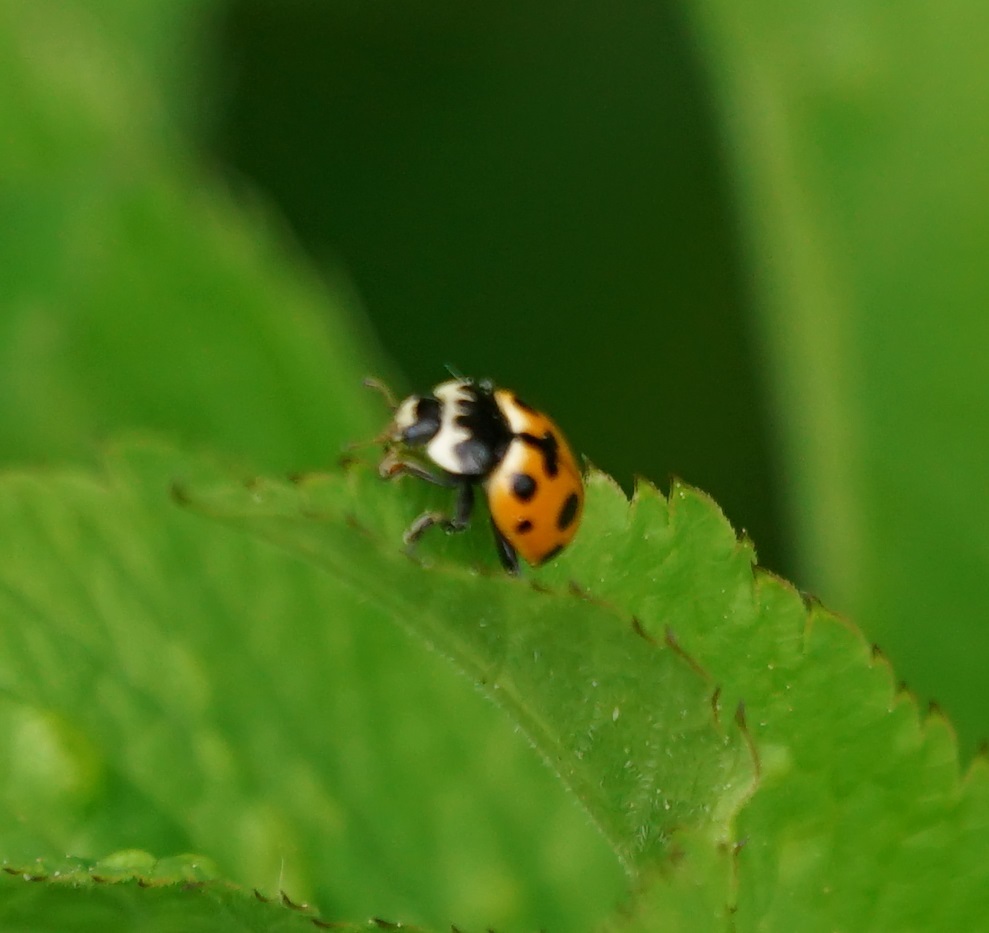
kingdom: Animalia
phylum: Arthropoda
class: Insecta
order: Coleoptera
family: Coccinellidae
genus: Ceratomegilla
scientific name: Ceratomegilla notata
